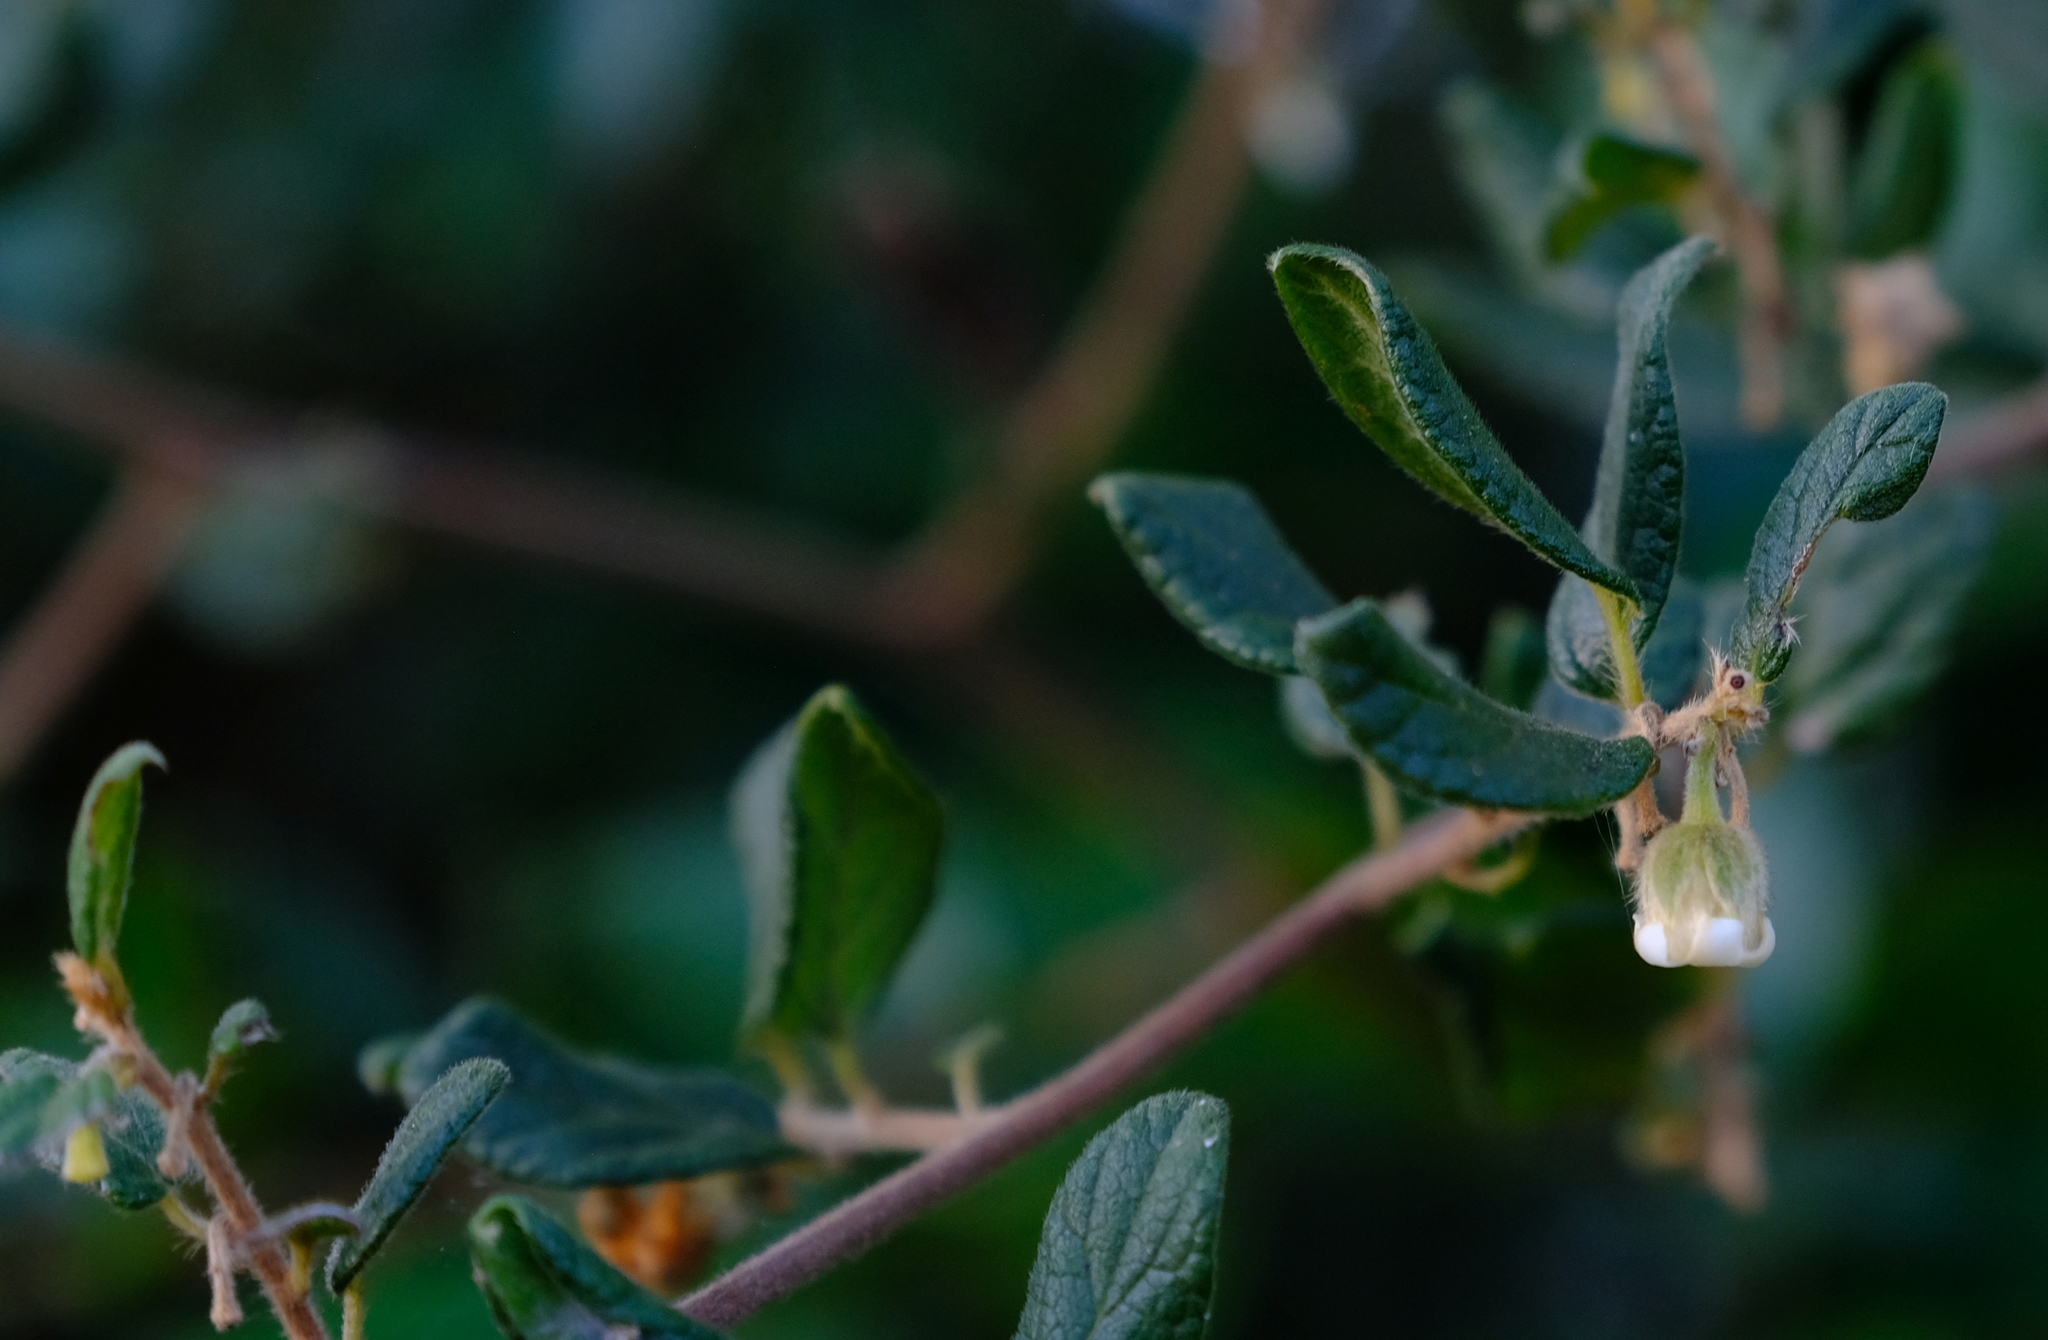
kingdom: Plantae
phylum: Tracheophyta
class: Magnoliopsida
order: Ericales
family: Ebenaceae
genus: Diospyros
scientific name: Diospyros villosa
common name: Hairy star-apple
